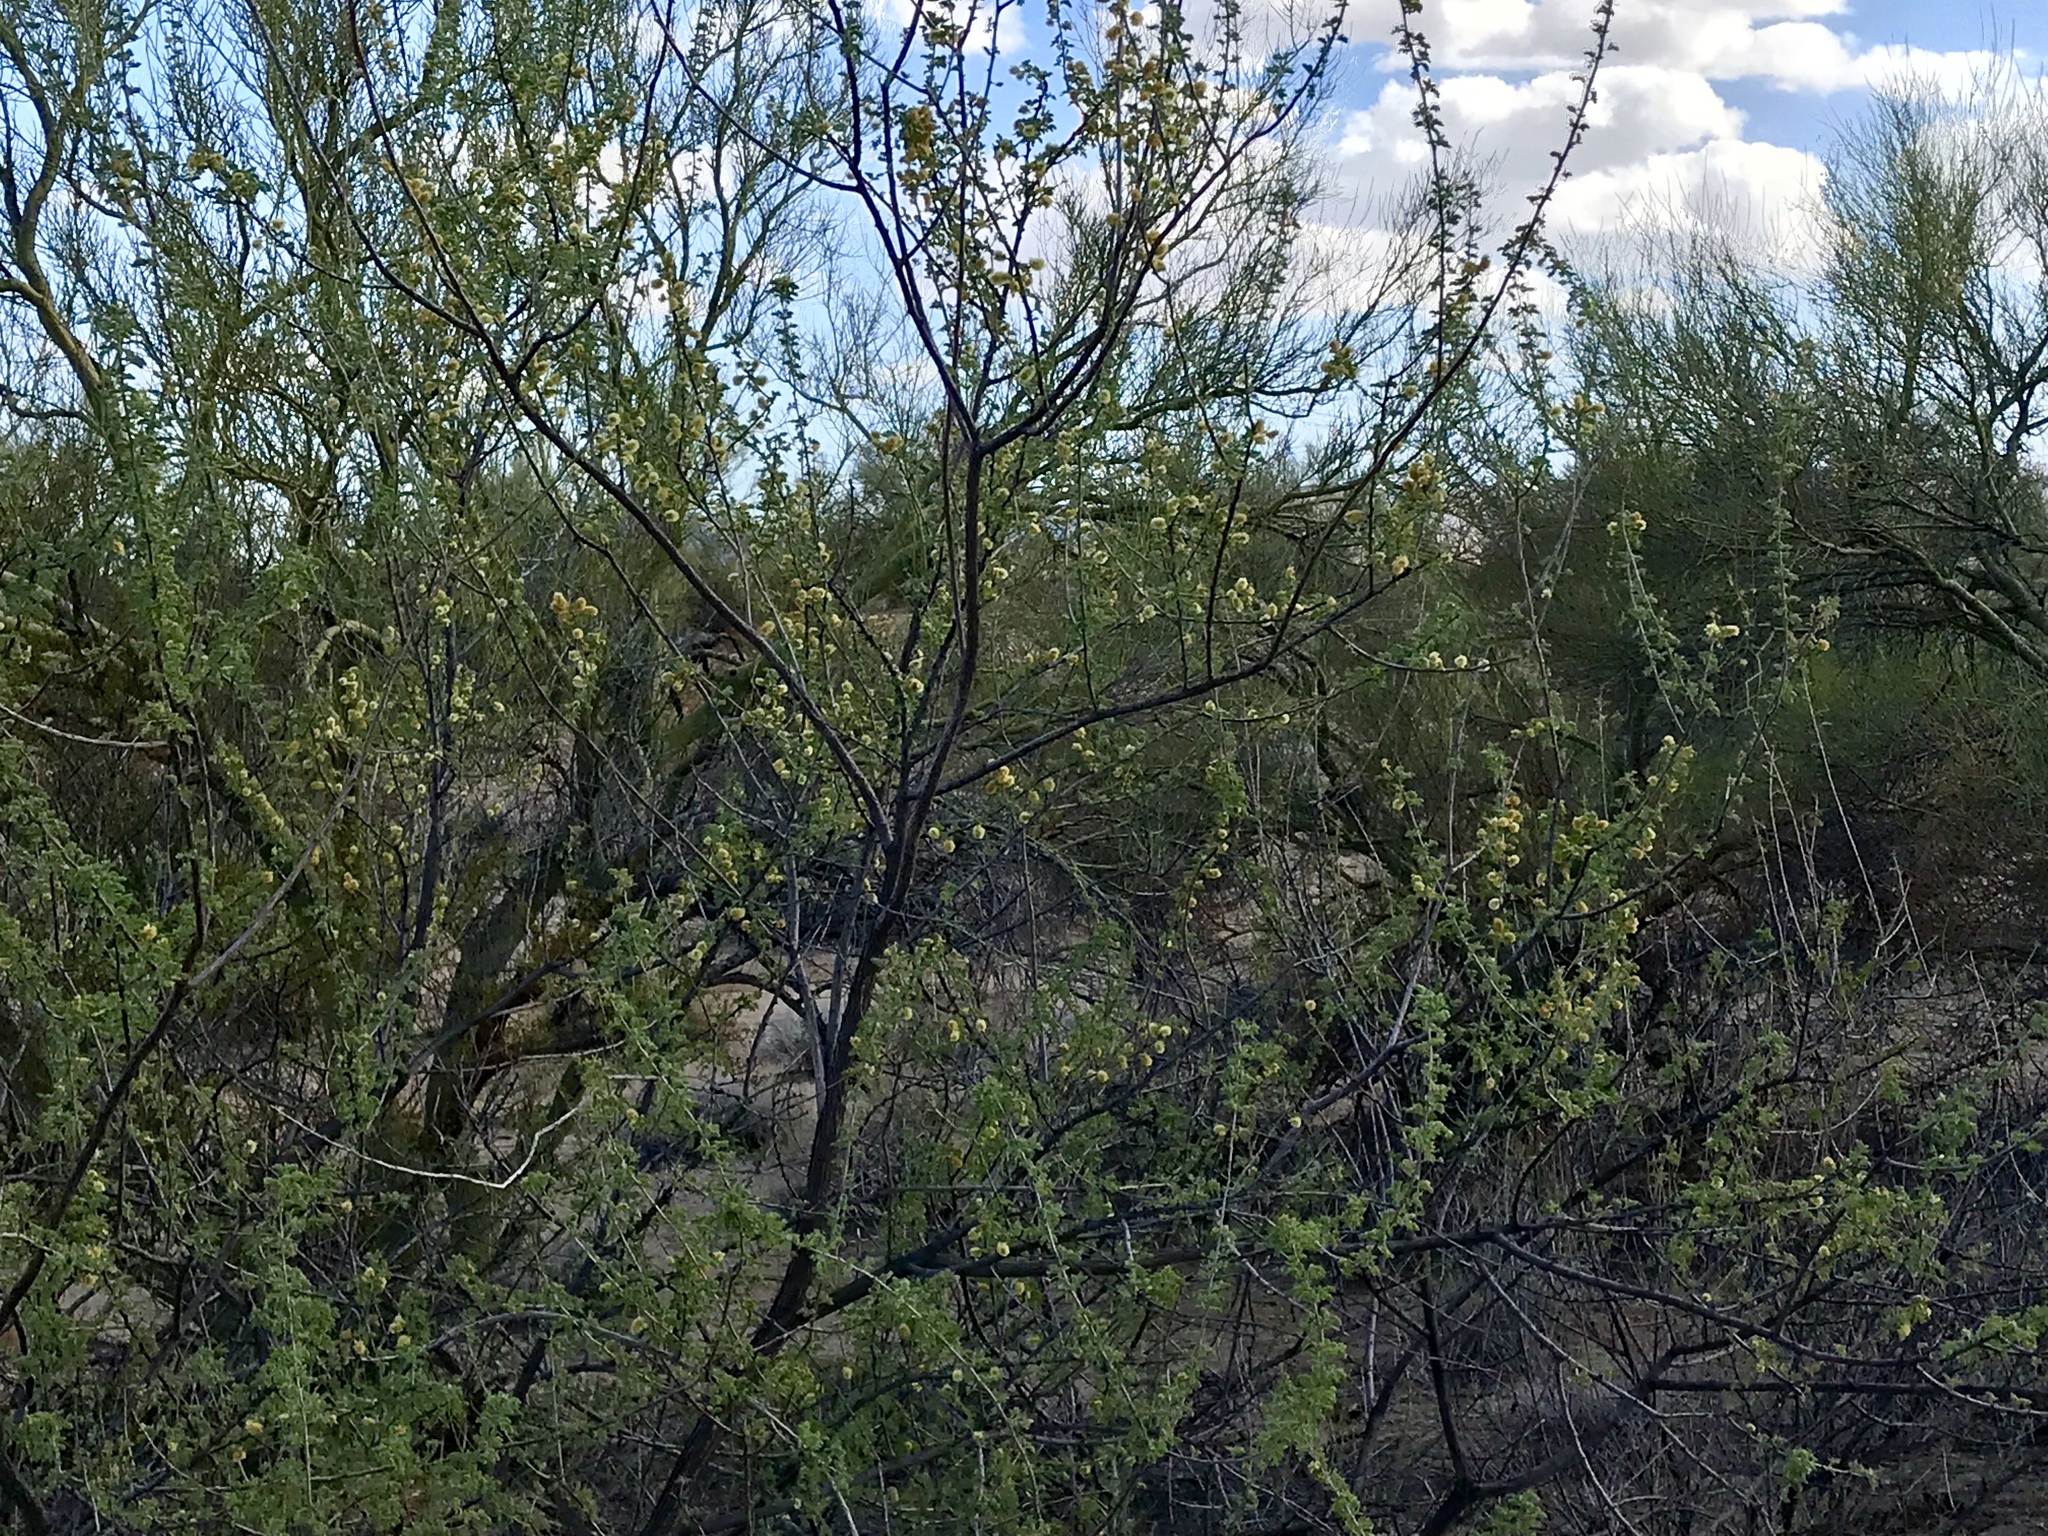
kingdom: Plantae
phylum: Tracheophyta
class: Magnoliopsida
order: Fabales
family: Fabaceae
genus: Senegalia
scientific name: Senegalia greggii
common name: Texas-mimosa
